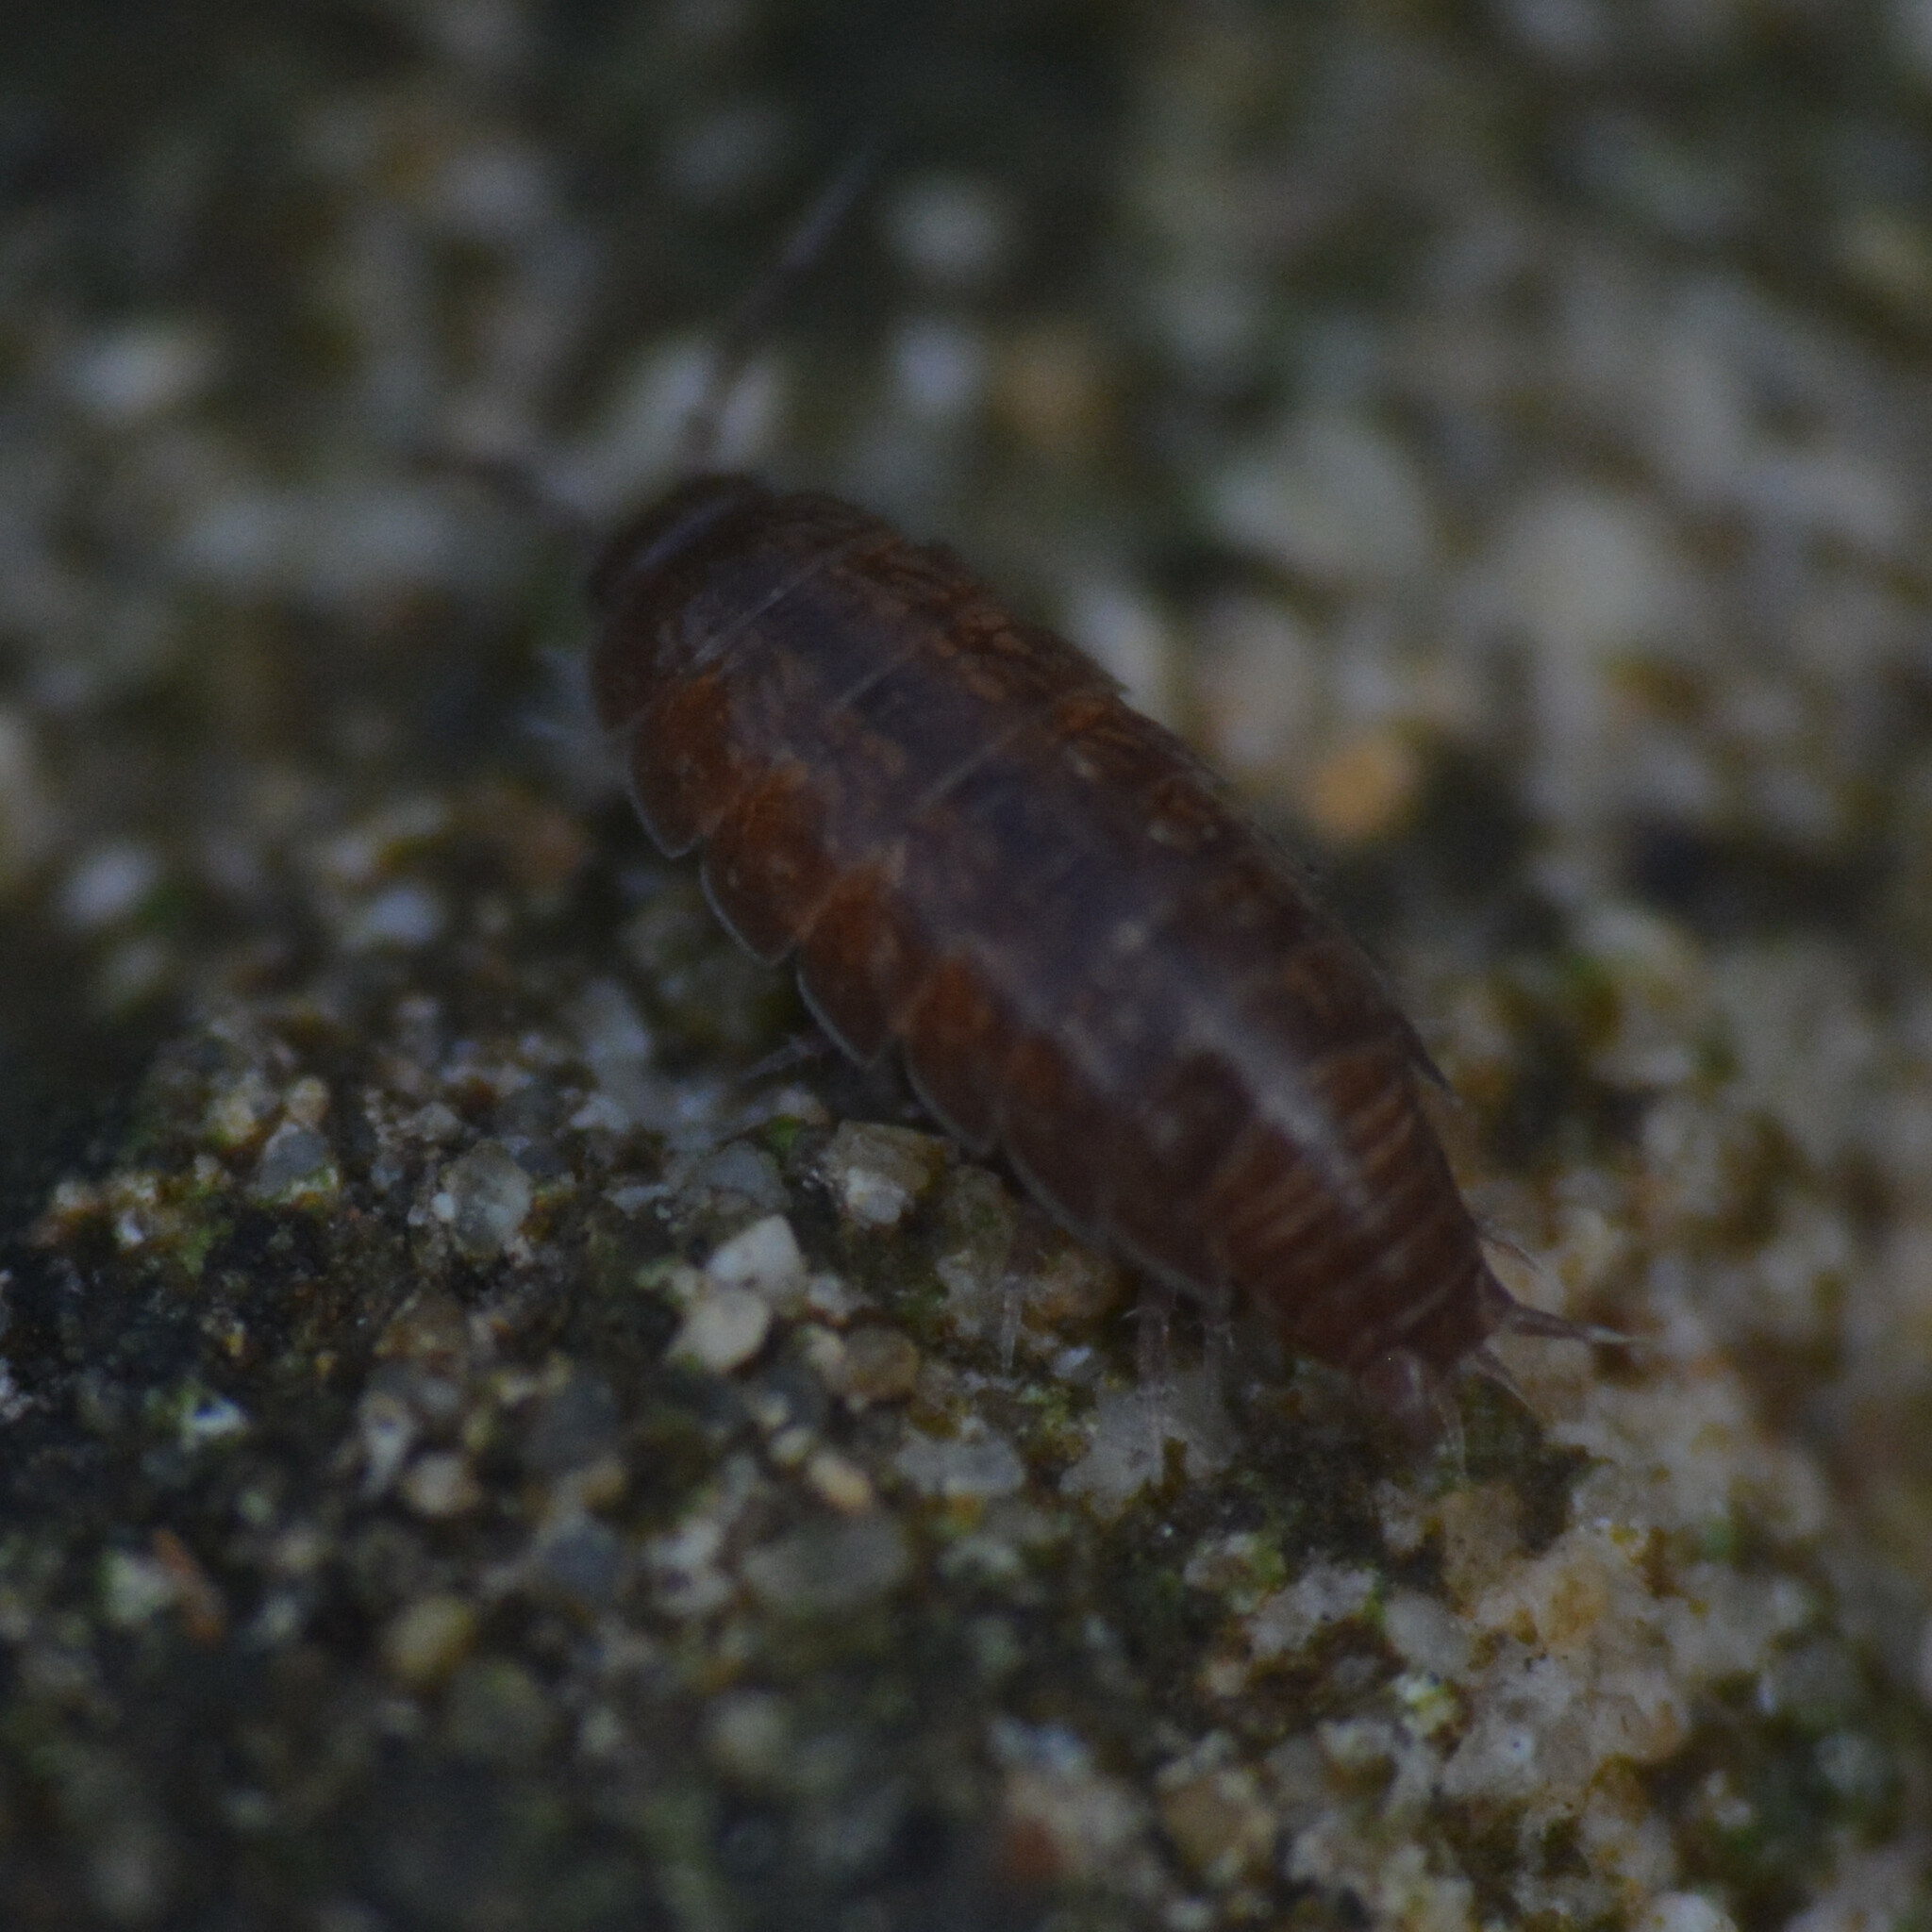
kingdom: Animalia
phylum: Arthropoda
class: Malacostraca
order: Isopoda
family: Trichoniscidae
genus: Trichoniscus
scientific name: Trichoniscus
